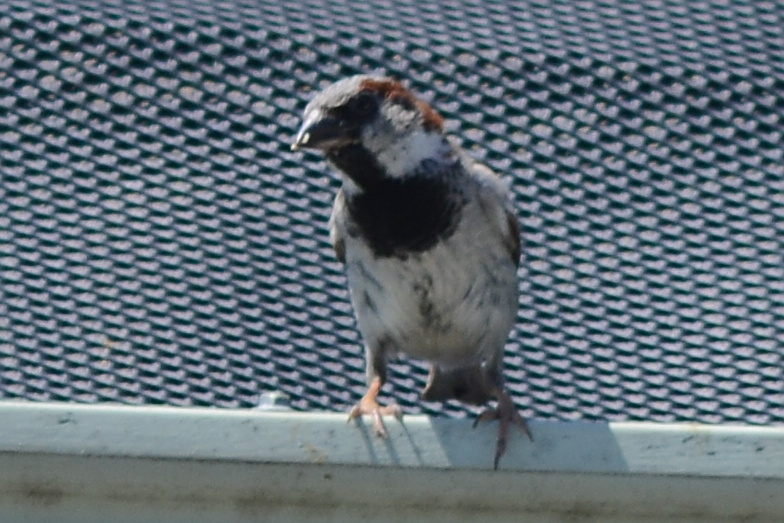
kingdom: Animalia
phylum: Chordata
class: Aves
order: Passeriformes
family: Passeridae
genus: Passer
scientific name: Passer domesticus
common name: House sparrow
